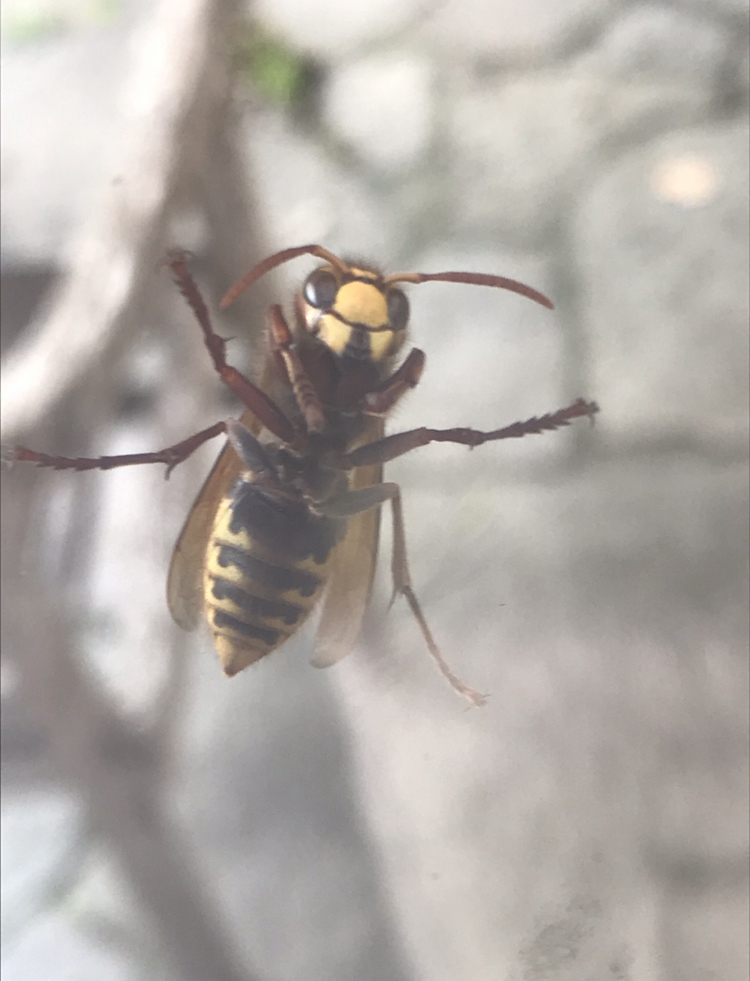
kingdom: Animalia
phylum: Arthropoda
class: Insecta
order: Hymenoptera
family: Vespidae
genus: Vespa
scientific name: Vespa crabro
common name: Hornet
